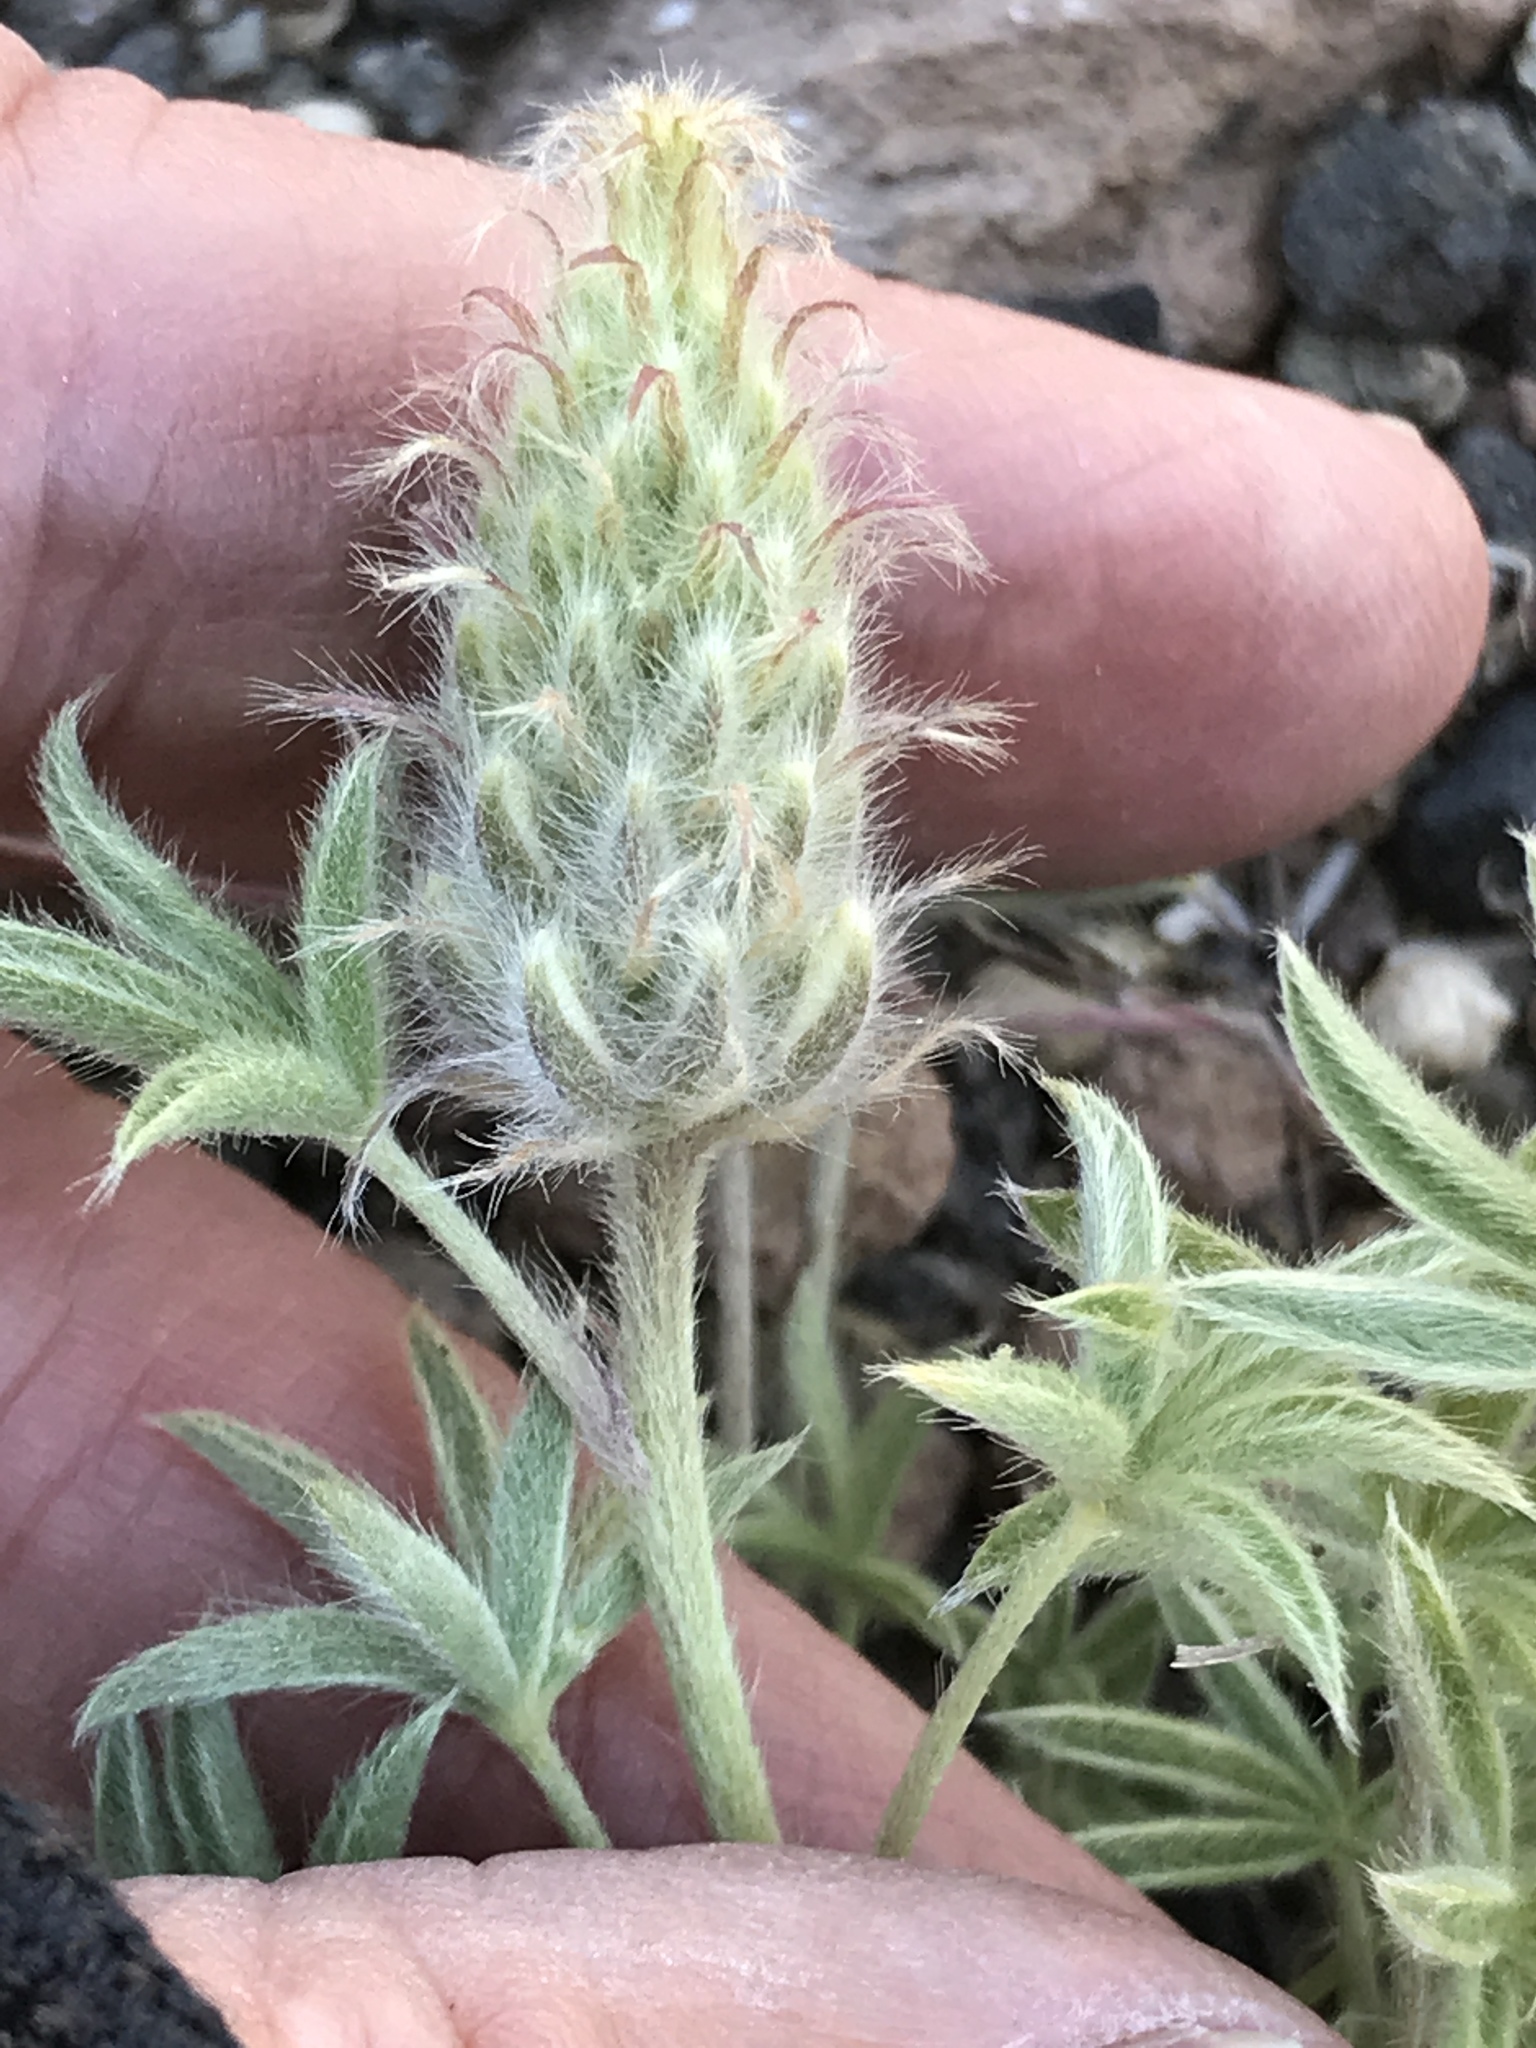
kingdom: Plantae
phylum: Tracheophyta
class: Magnoliopsida
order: Fabales
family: Fabaceae
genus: Lupinus
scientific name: Lupinus lepidus
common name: Prairie lupine
